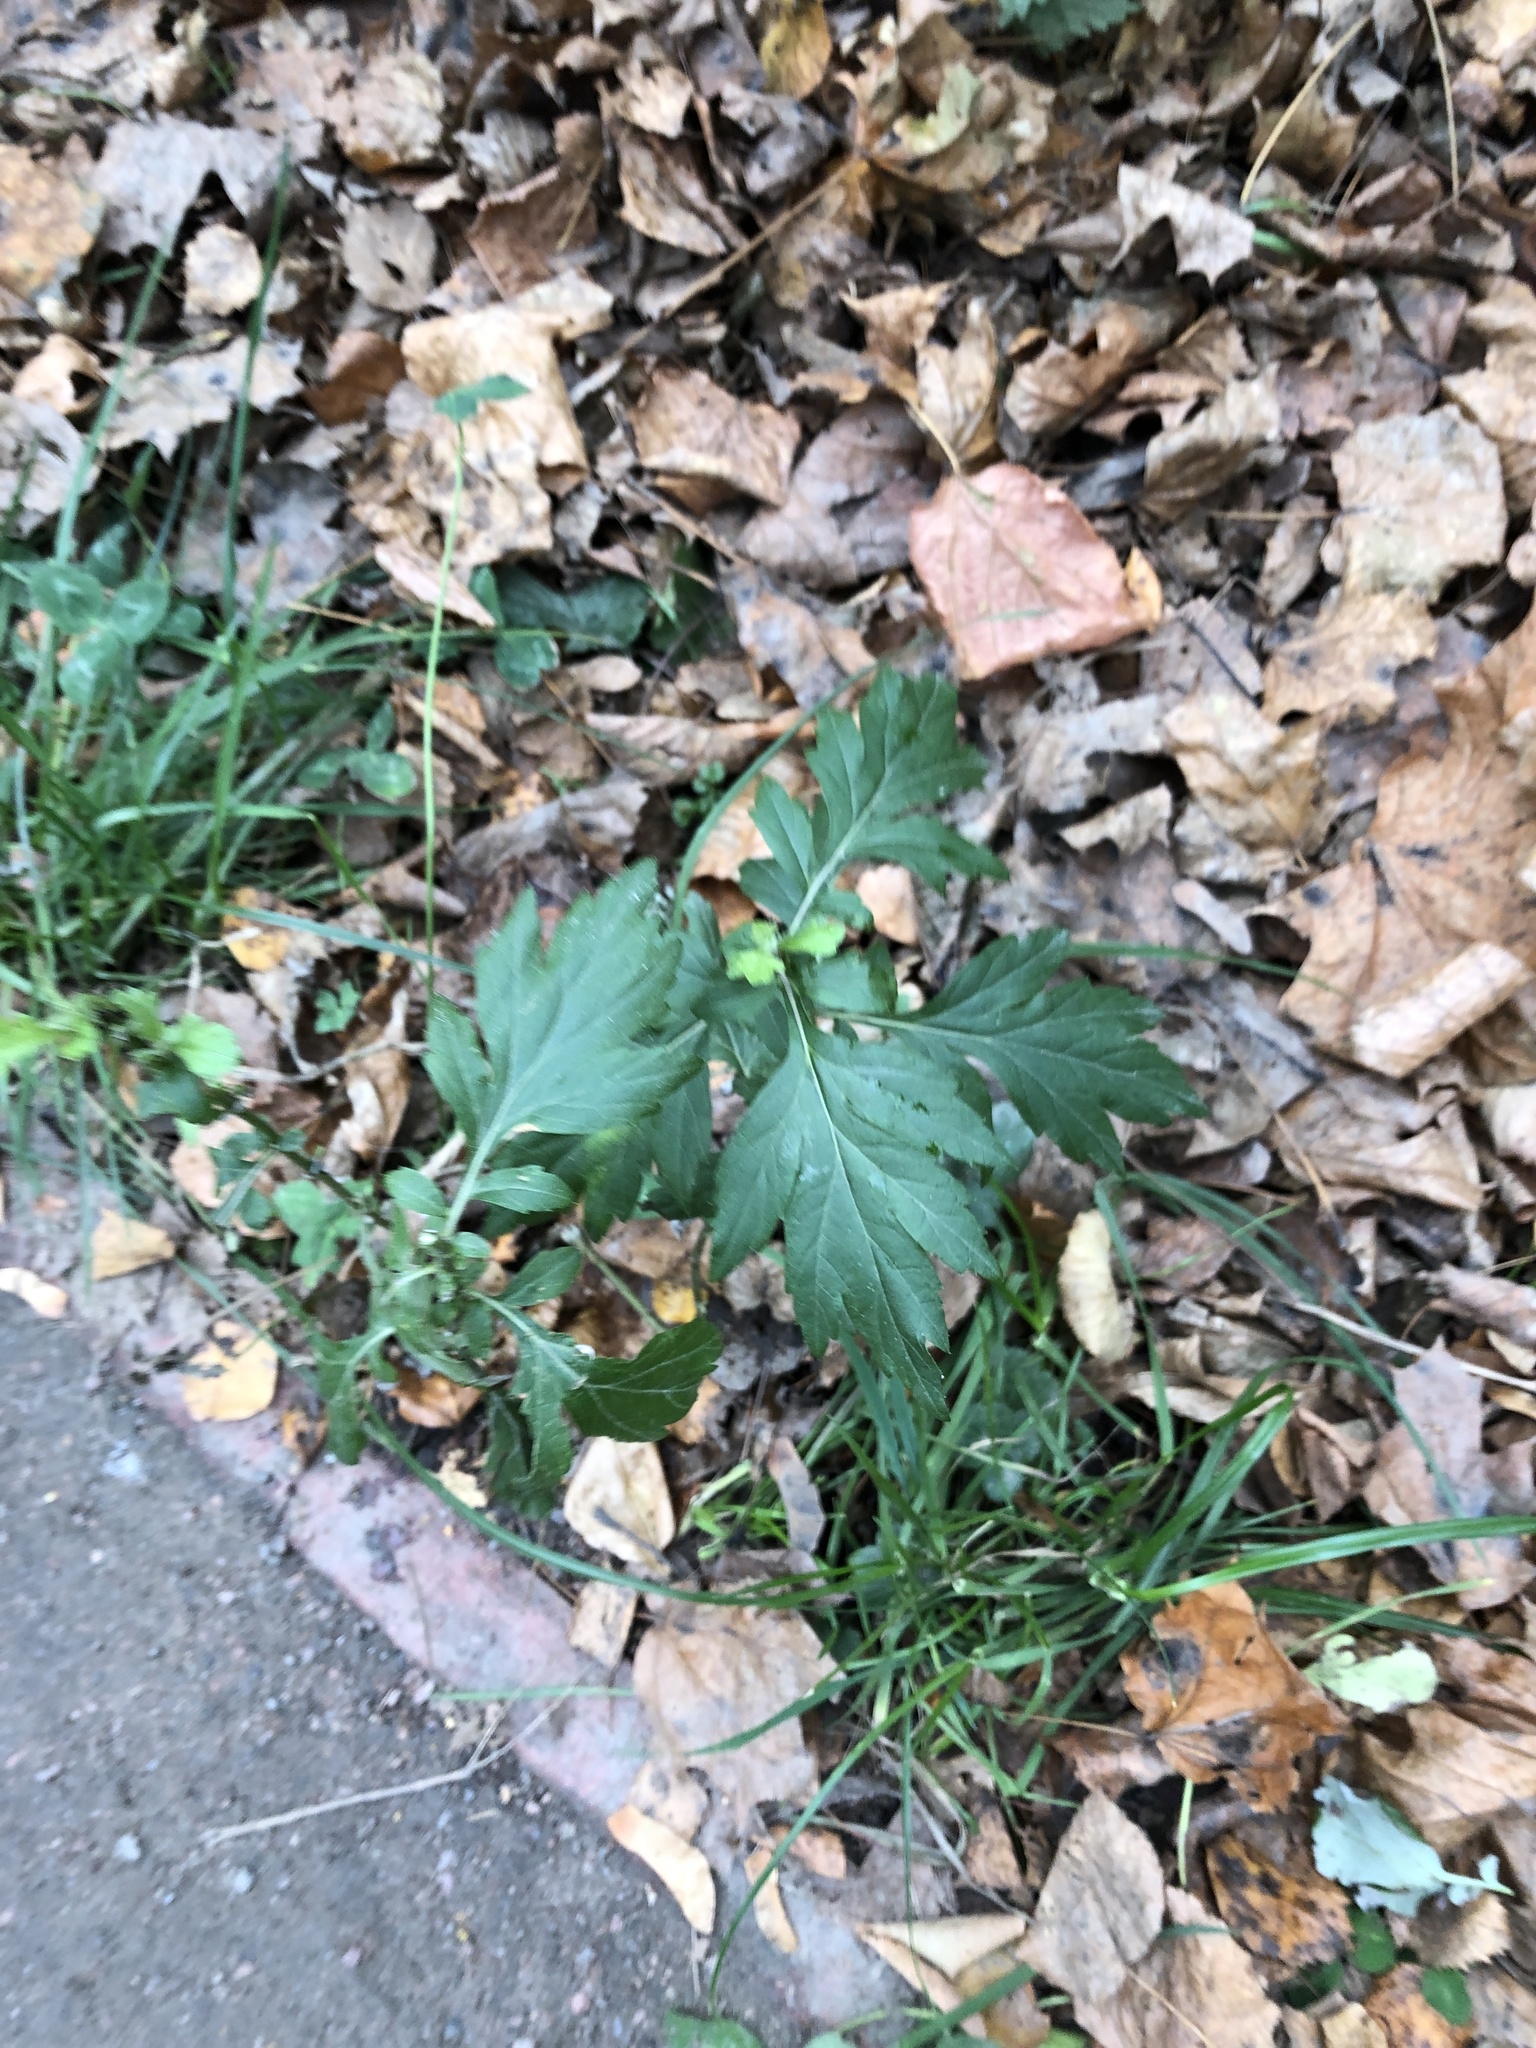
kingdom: Plantae
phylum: Tracheophyta
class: Magnoliopsida
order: Asterales
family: Asteraceae
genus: Artemisia
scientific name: Artemisia vulgaris
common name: Mugwort
